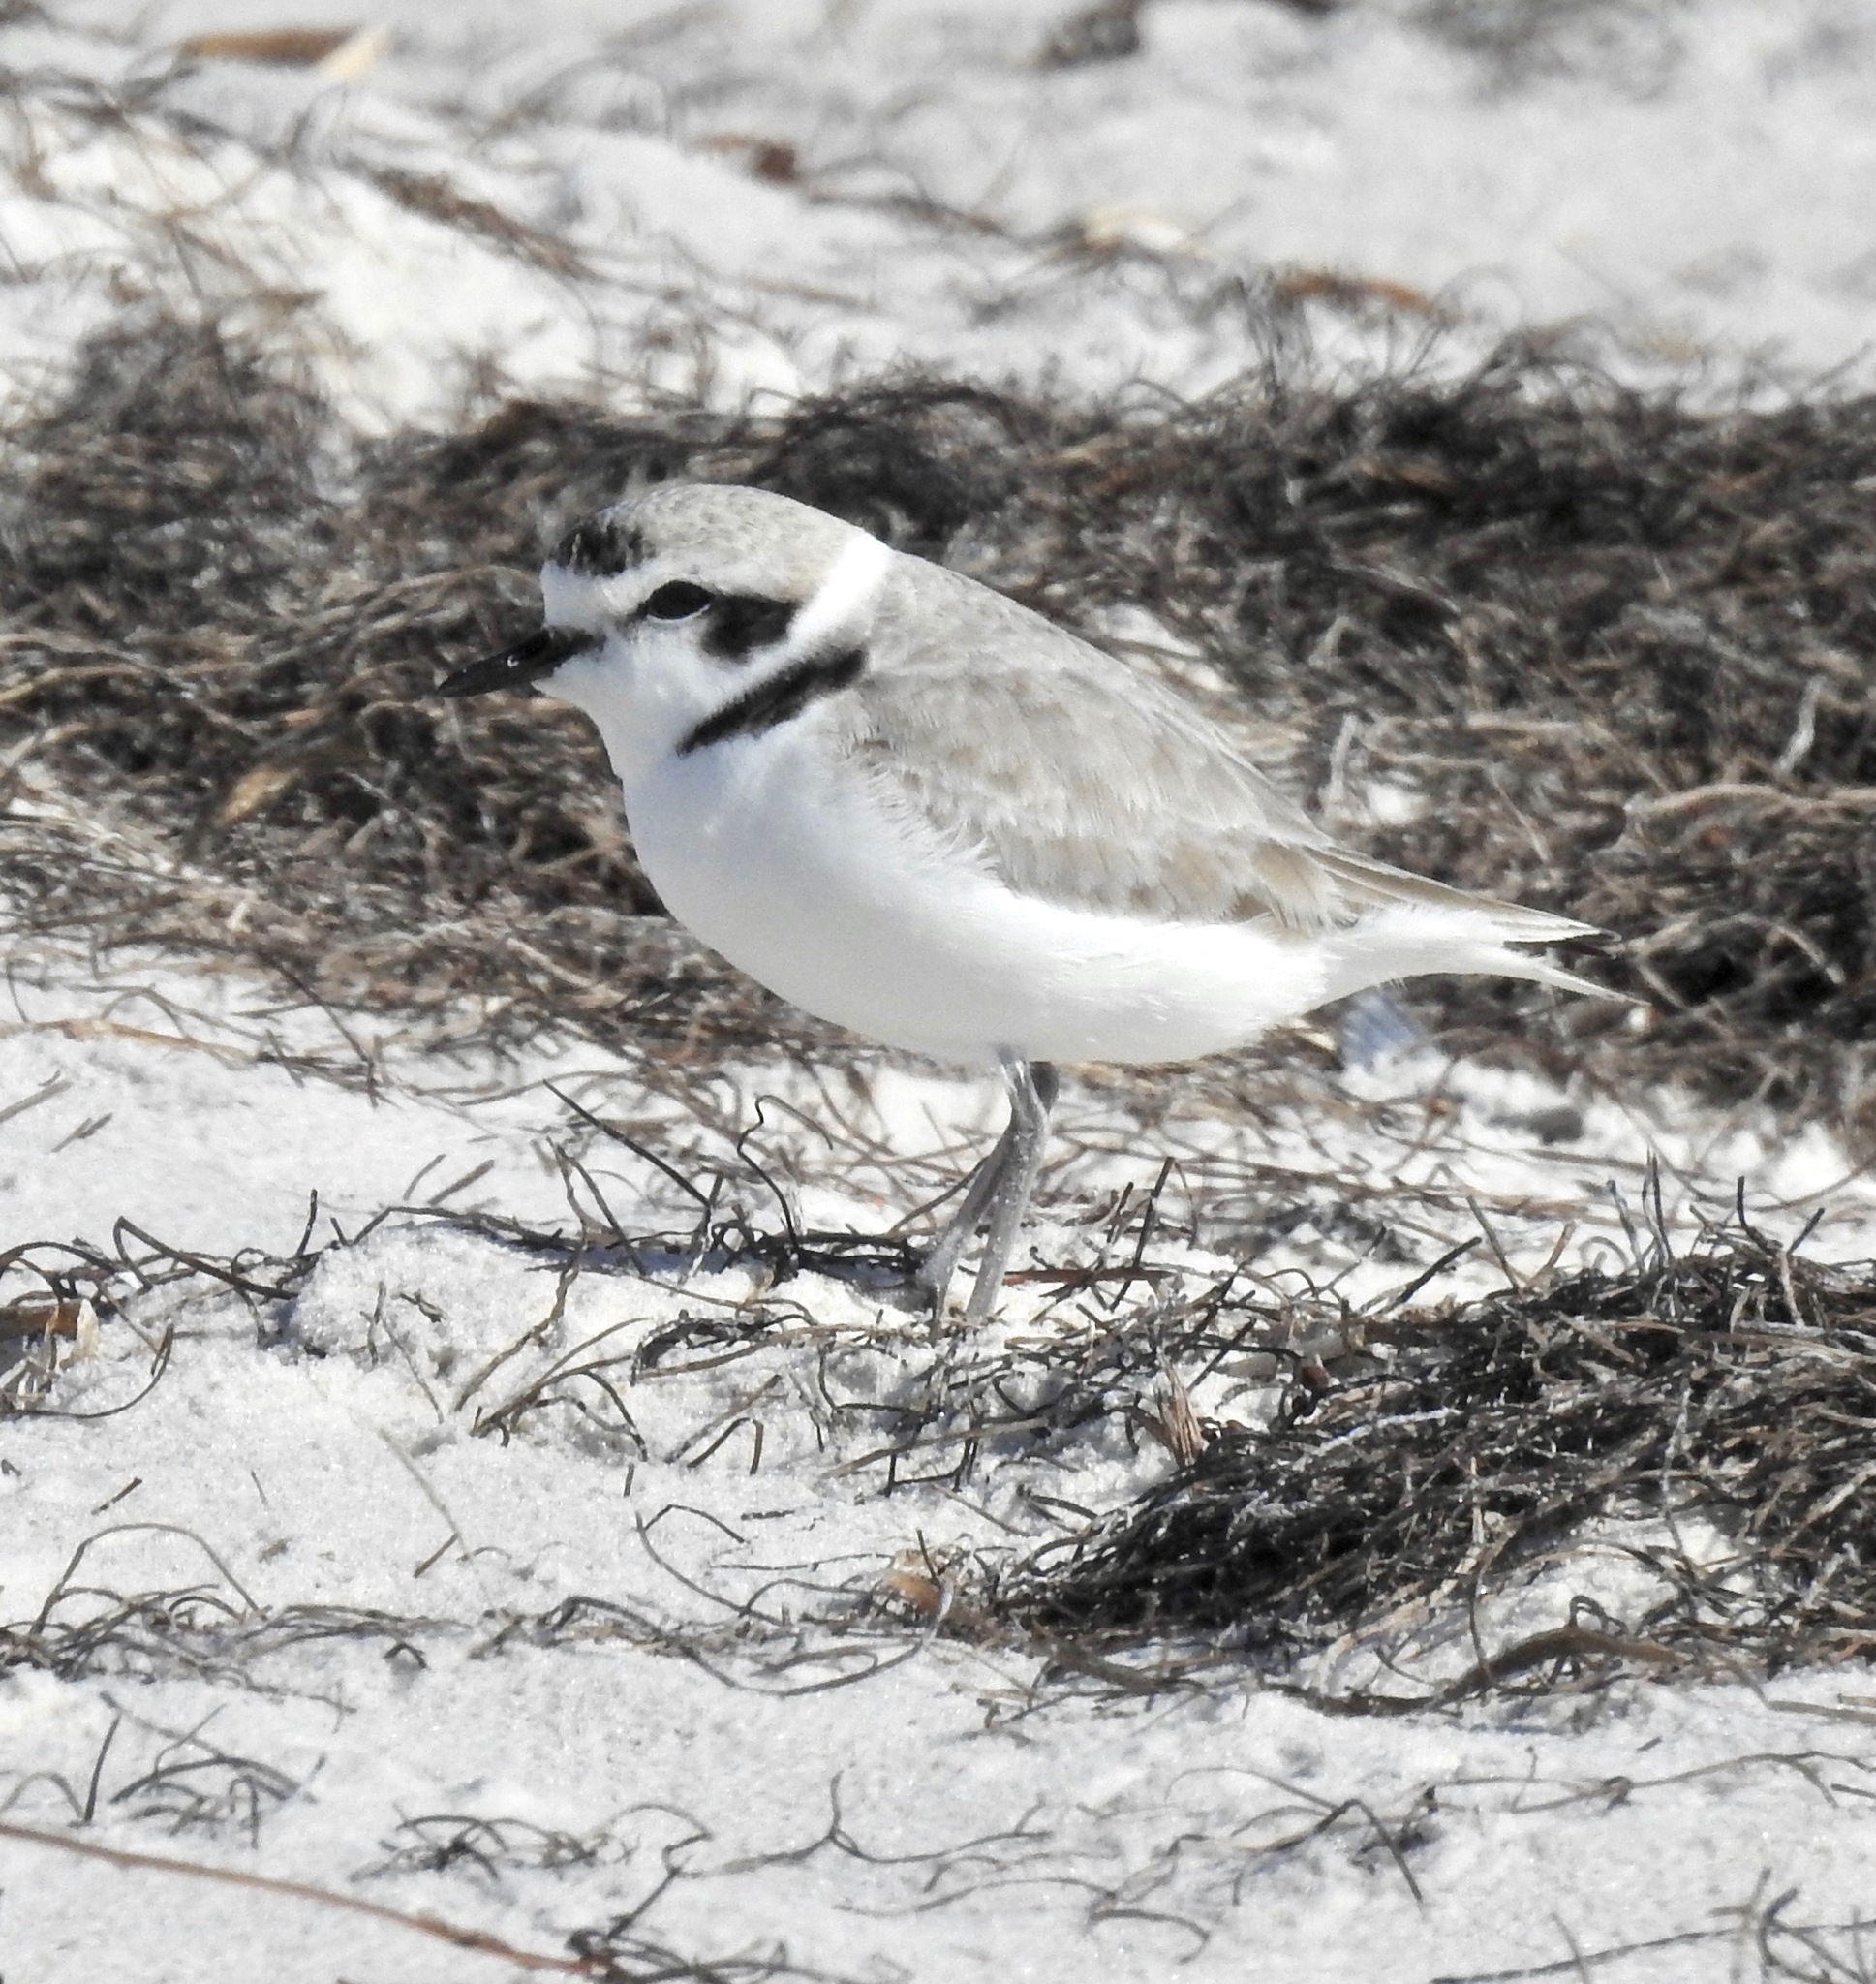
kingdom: Animalia
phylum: Chordata
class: Aves
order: Charadriiformes
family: Charadriidae
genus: Anarhynchus
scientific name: Anarhynchus
